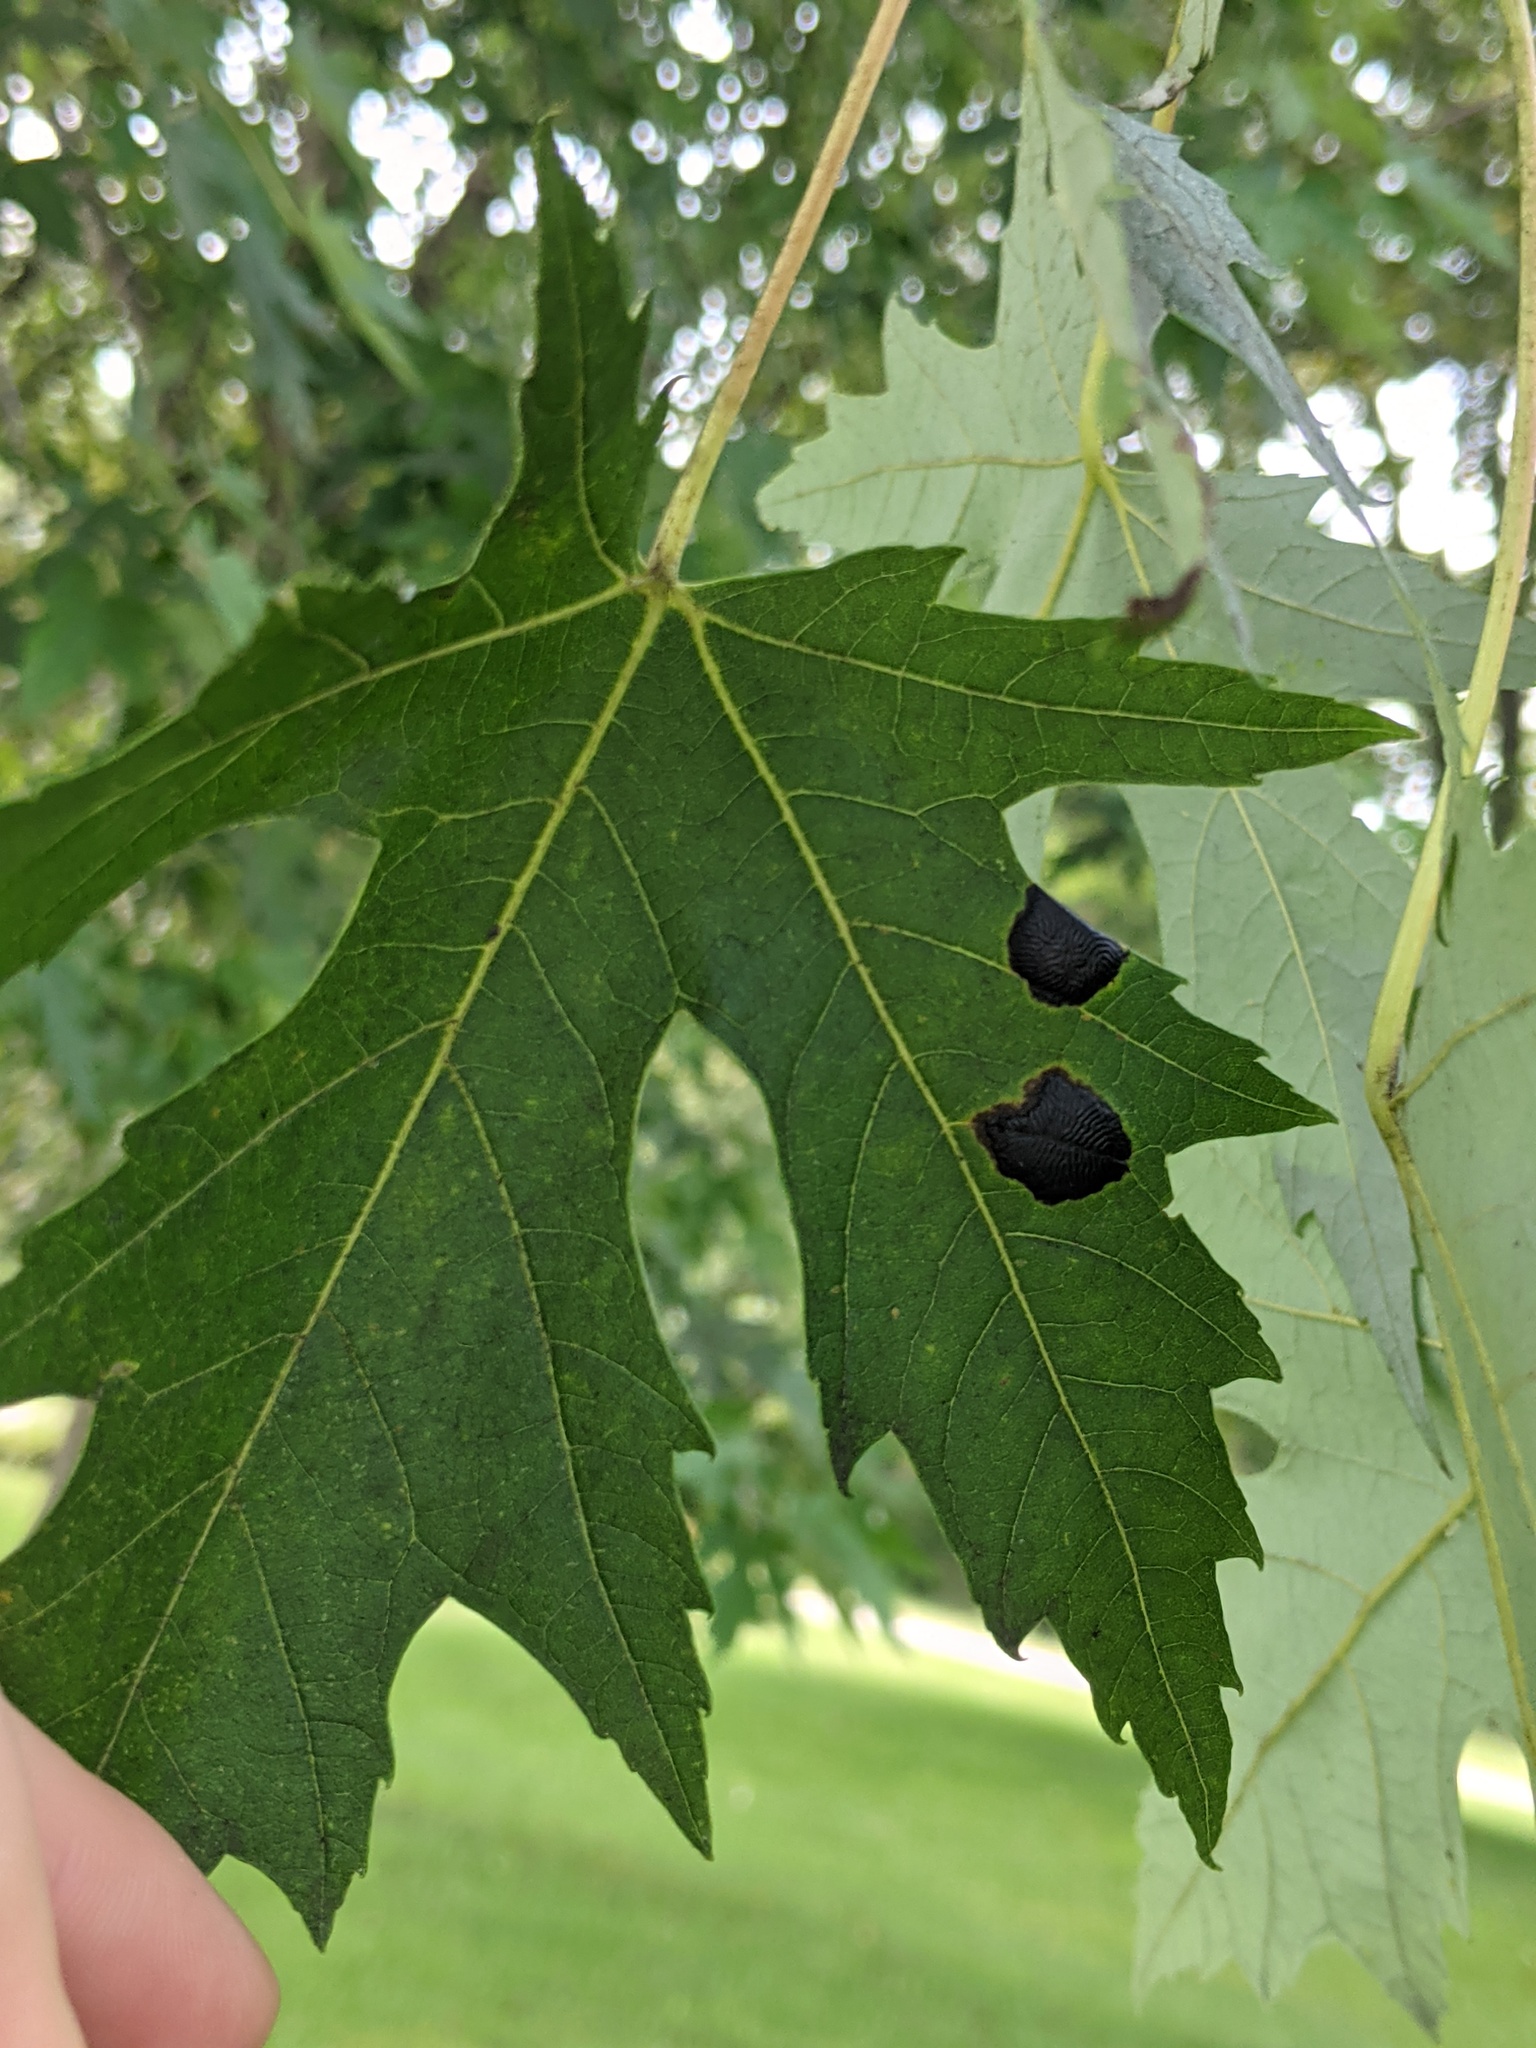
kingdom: Fungi
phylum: Ascomycota
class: Leotiomycetes
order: Rhytismatales
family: Rhytismataceae
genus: Rhytisma
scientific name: Rhytisma americanum
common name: American tar spot
